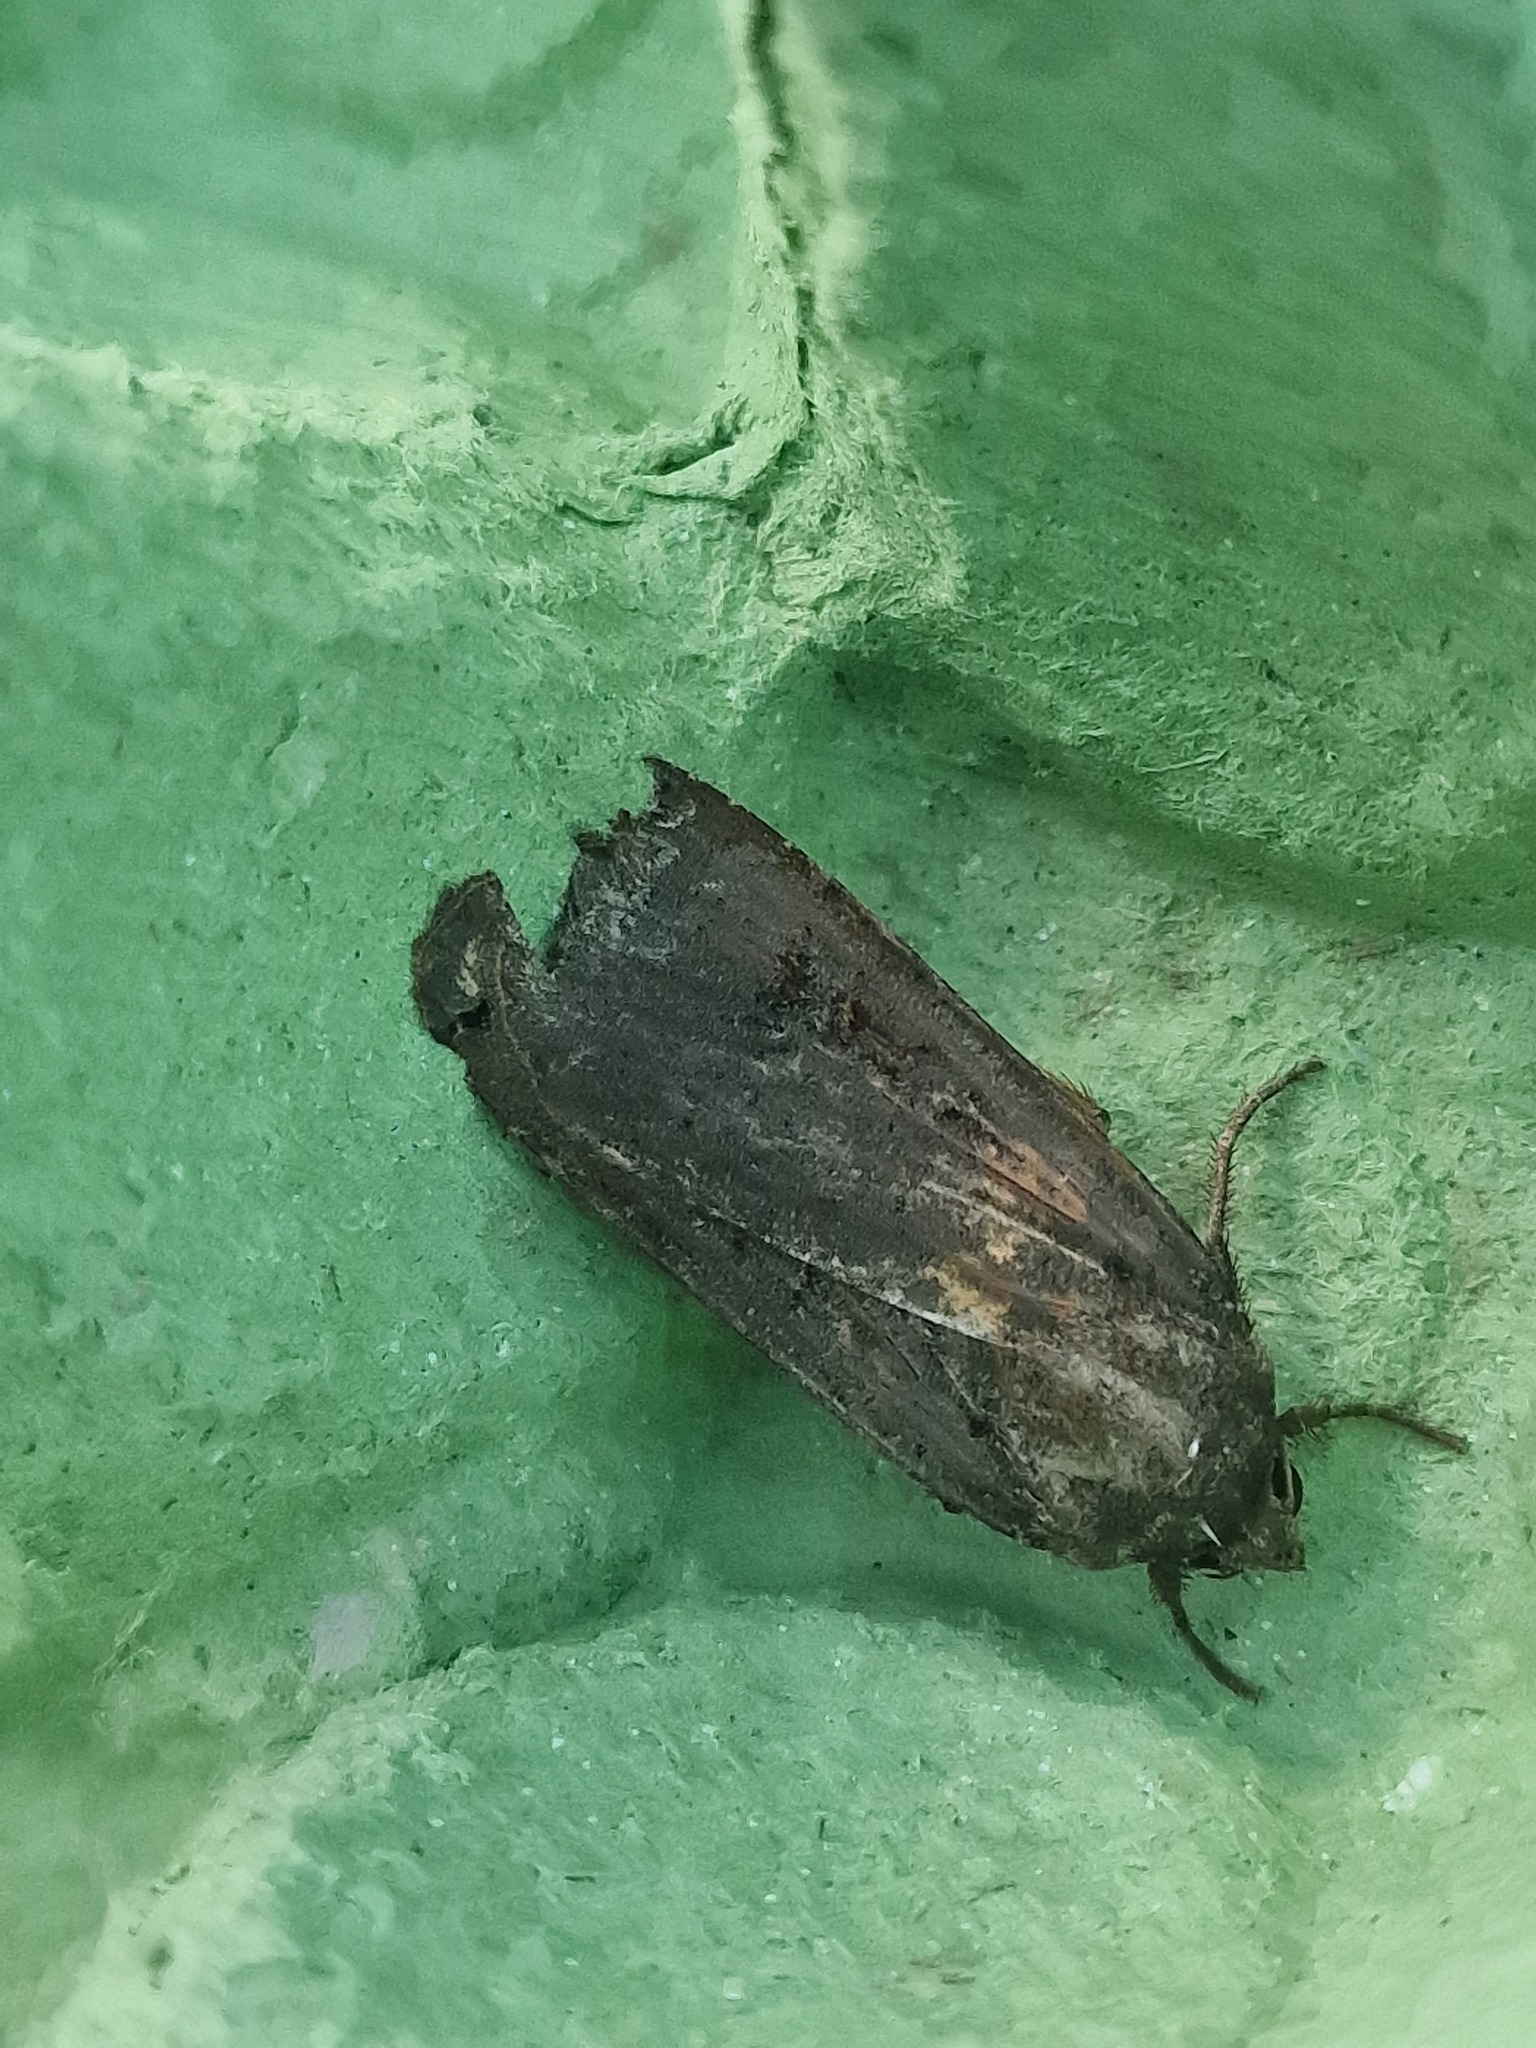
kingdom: Animalia
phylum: Arthropoda
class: Insecta
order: Lepidoptera
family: Noctuidae
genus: Noctua
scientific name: Noctua pronuba
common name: Large yellow underwing
